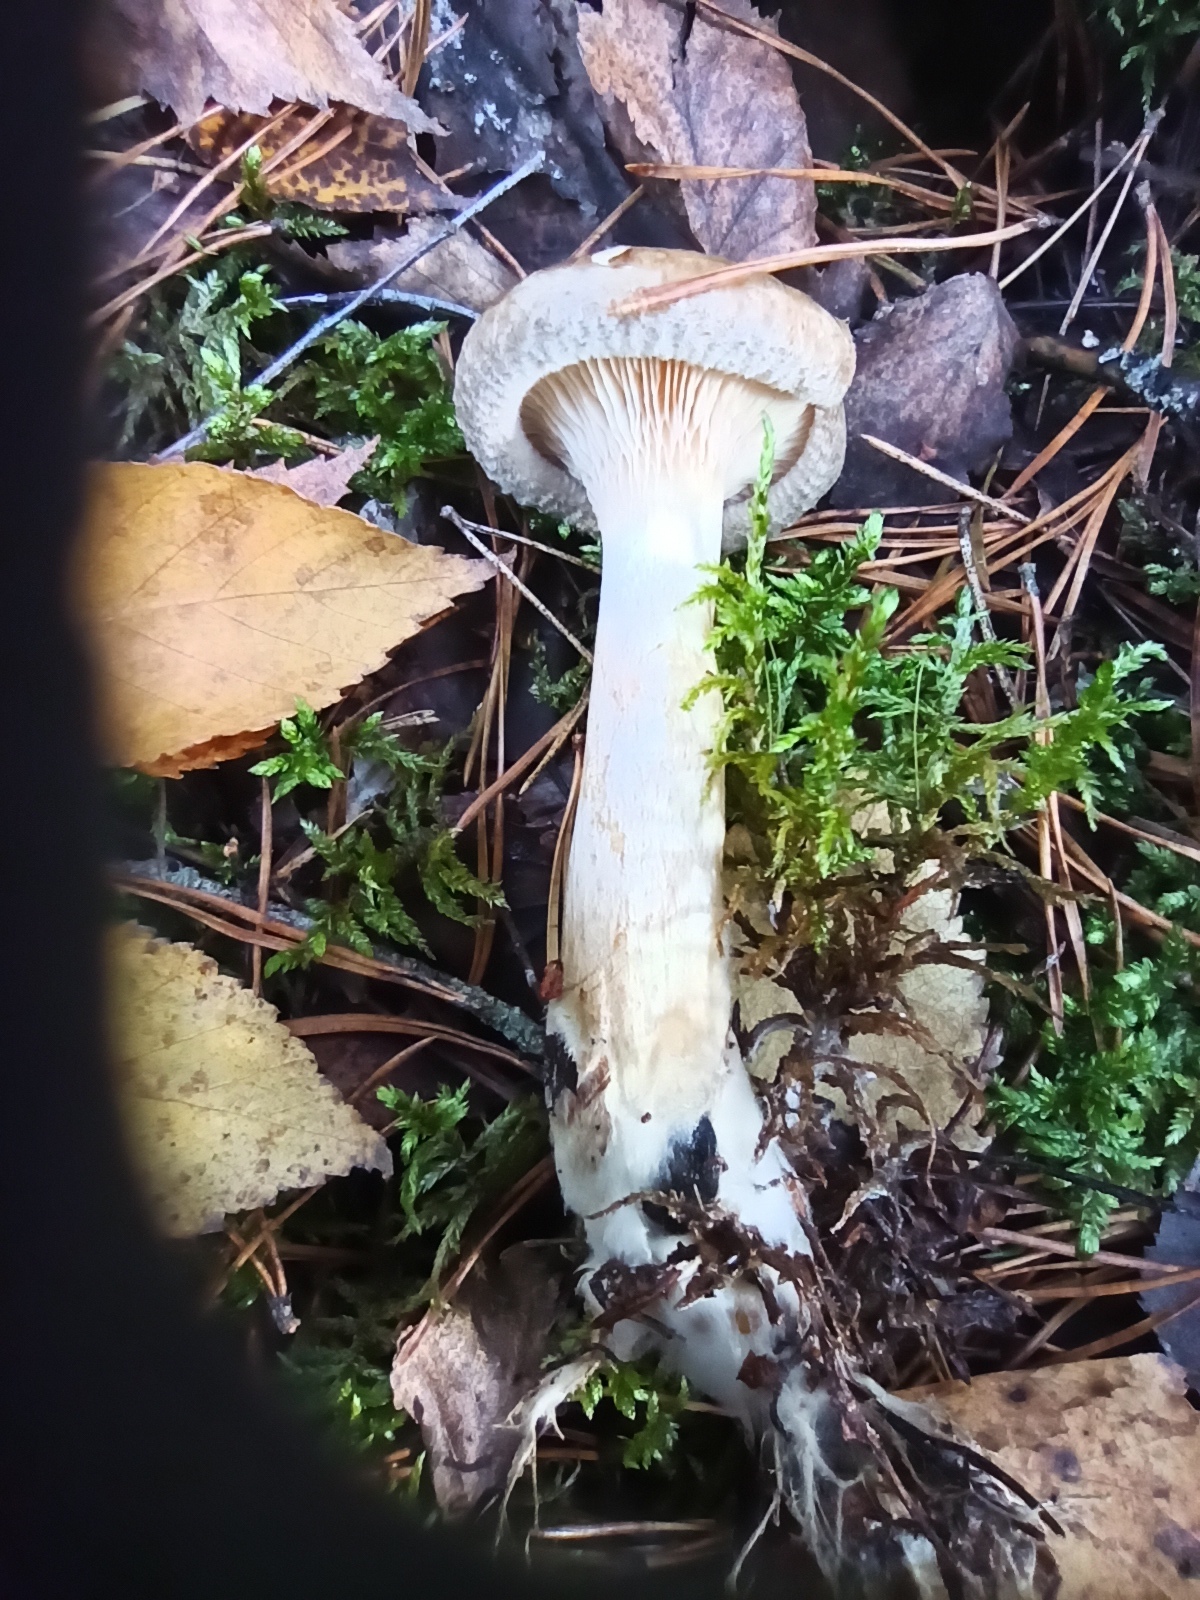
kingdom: Fungi
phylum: Basidiomycota
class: Agaricomycetes
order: Boletales
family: Paxillaceae
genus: Paxillus
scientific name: Paxillus involutus
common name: Brown roll rim
